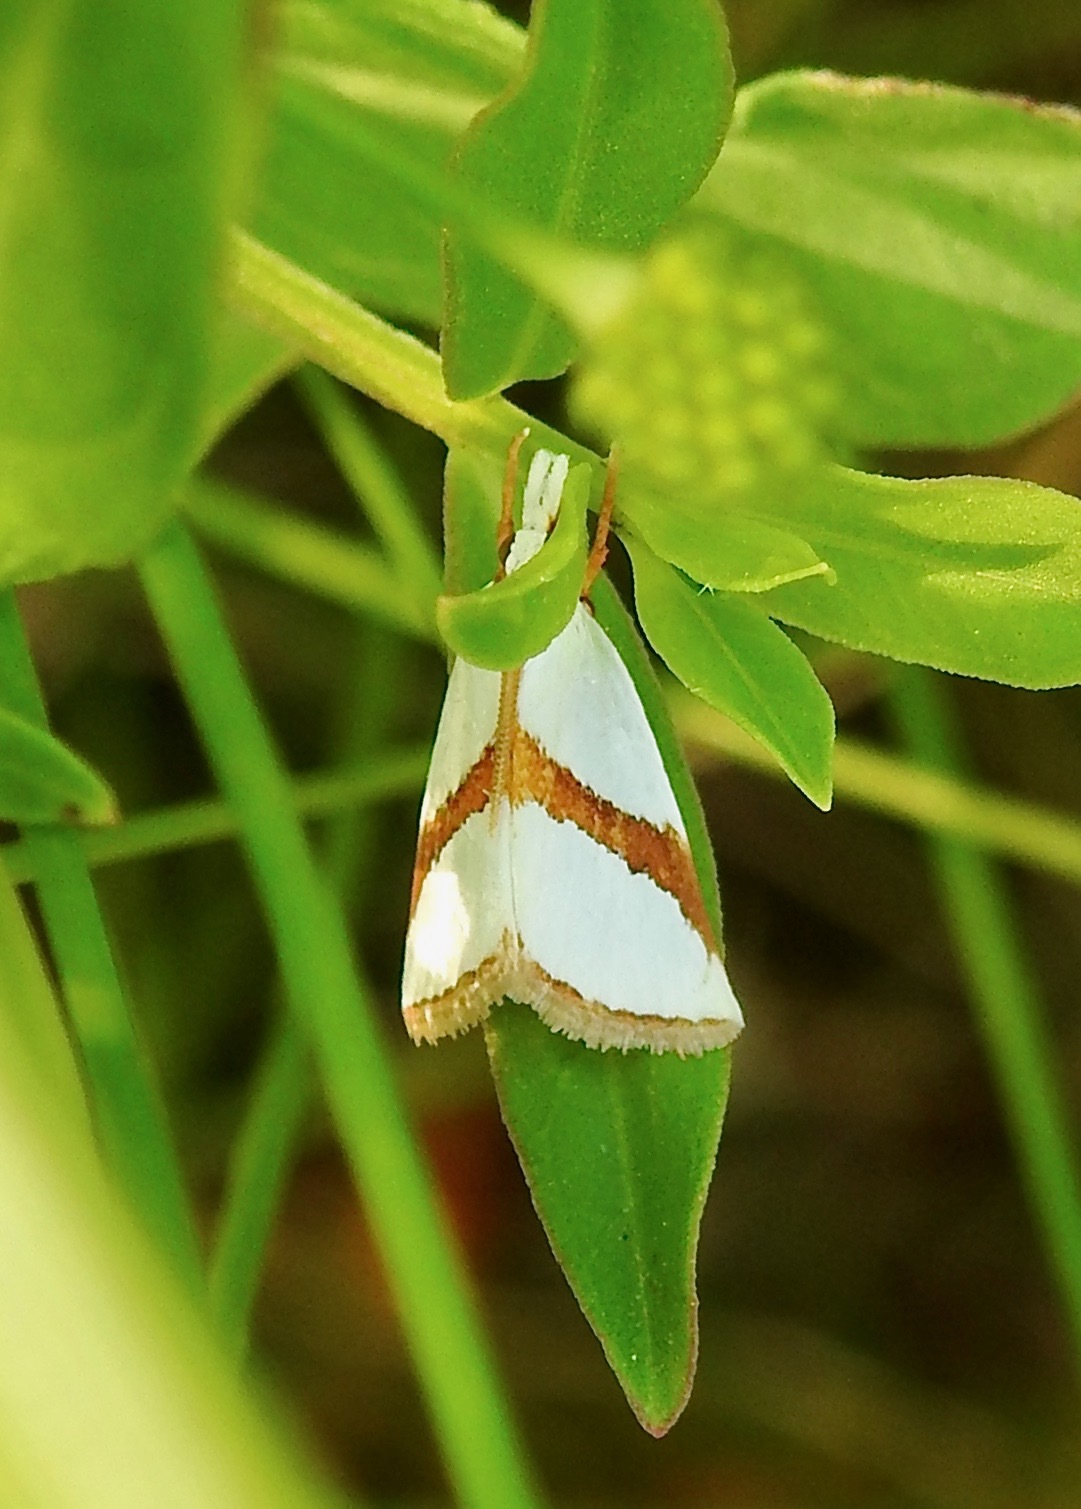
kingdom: Animalia
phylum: Arthropoda
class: Insecta
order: Lepidoptera
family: Crambidae
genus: Vaxi
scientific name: Vaxi critica
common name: Straight-lined vaxi moth
